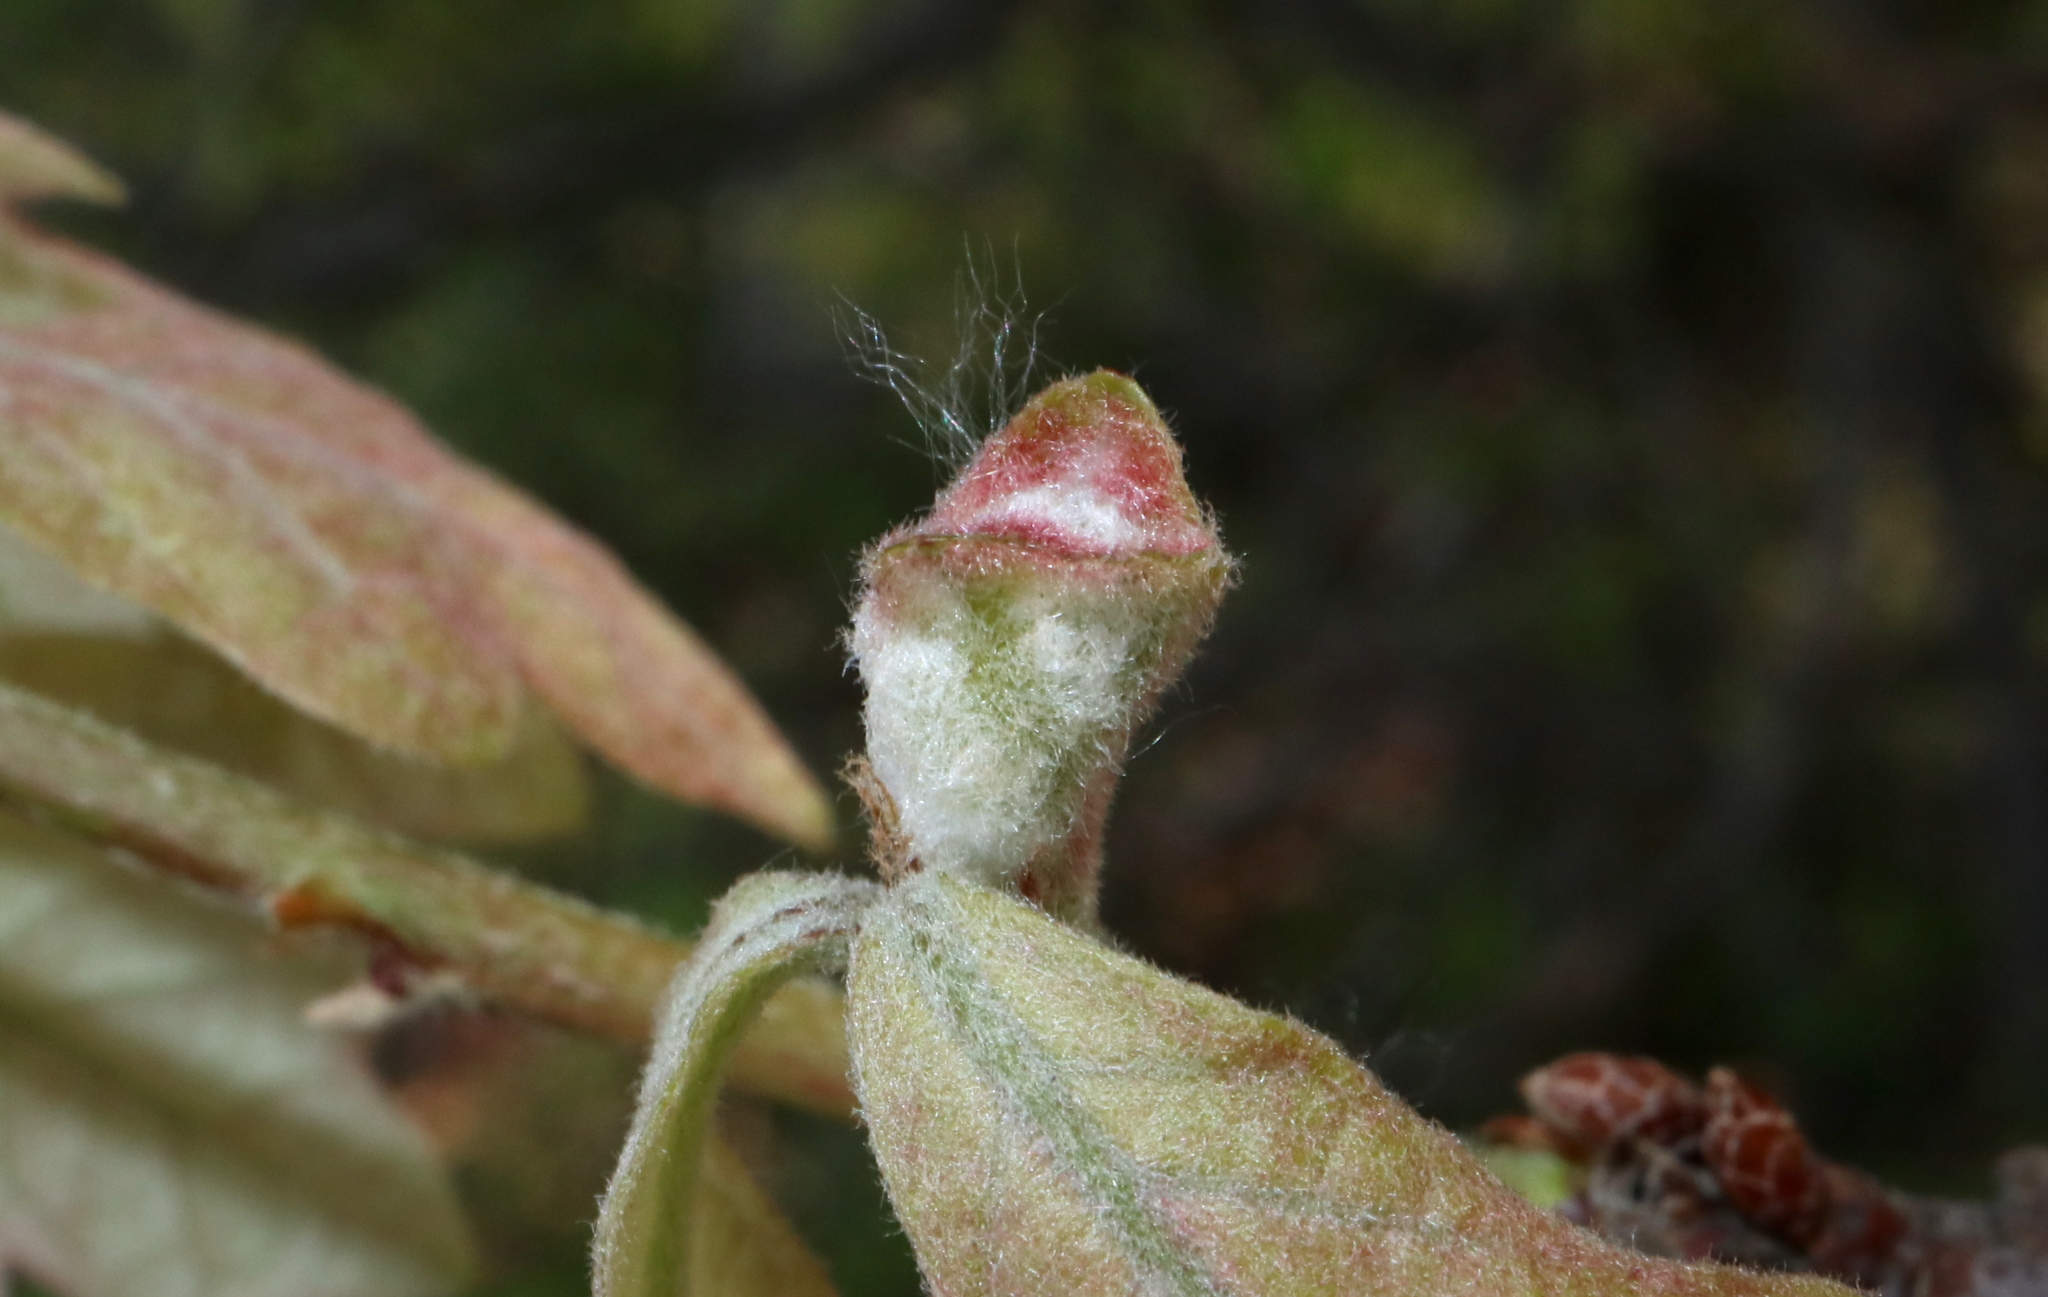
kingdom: Animalia
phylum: Arthropoda
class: Insecta
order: Hymenoptera
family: Cynipidae
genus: Neuroterus
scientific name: Neuroterus minutulus
